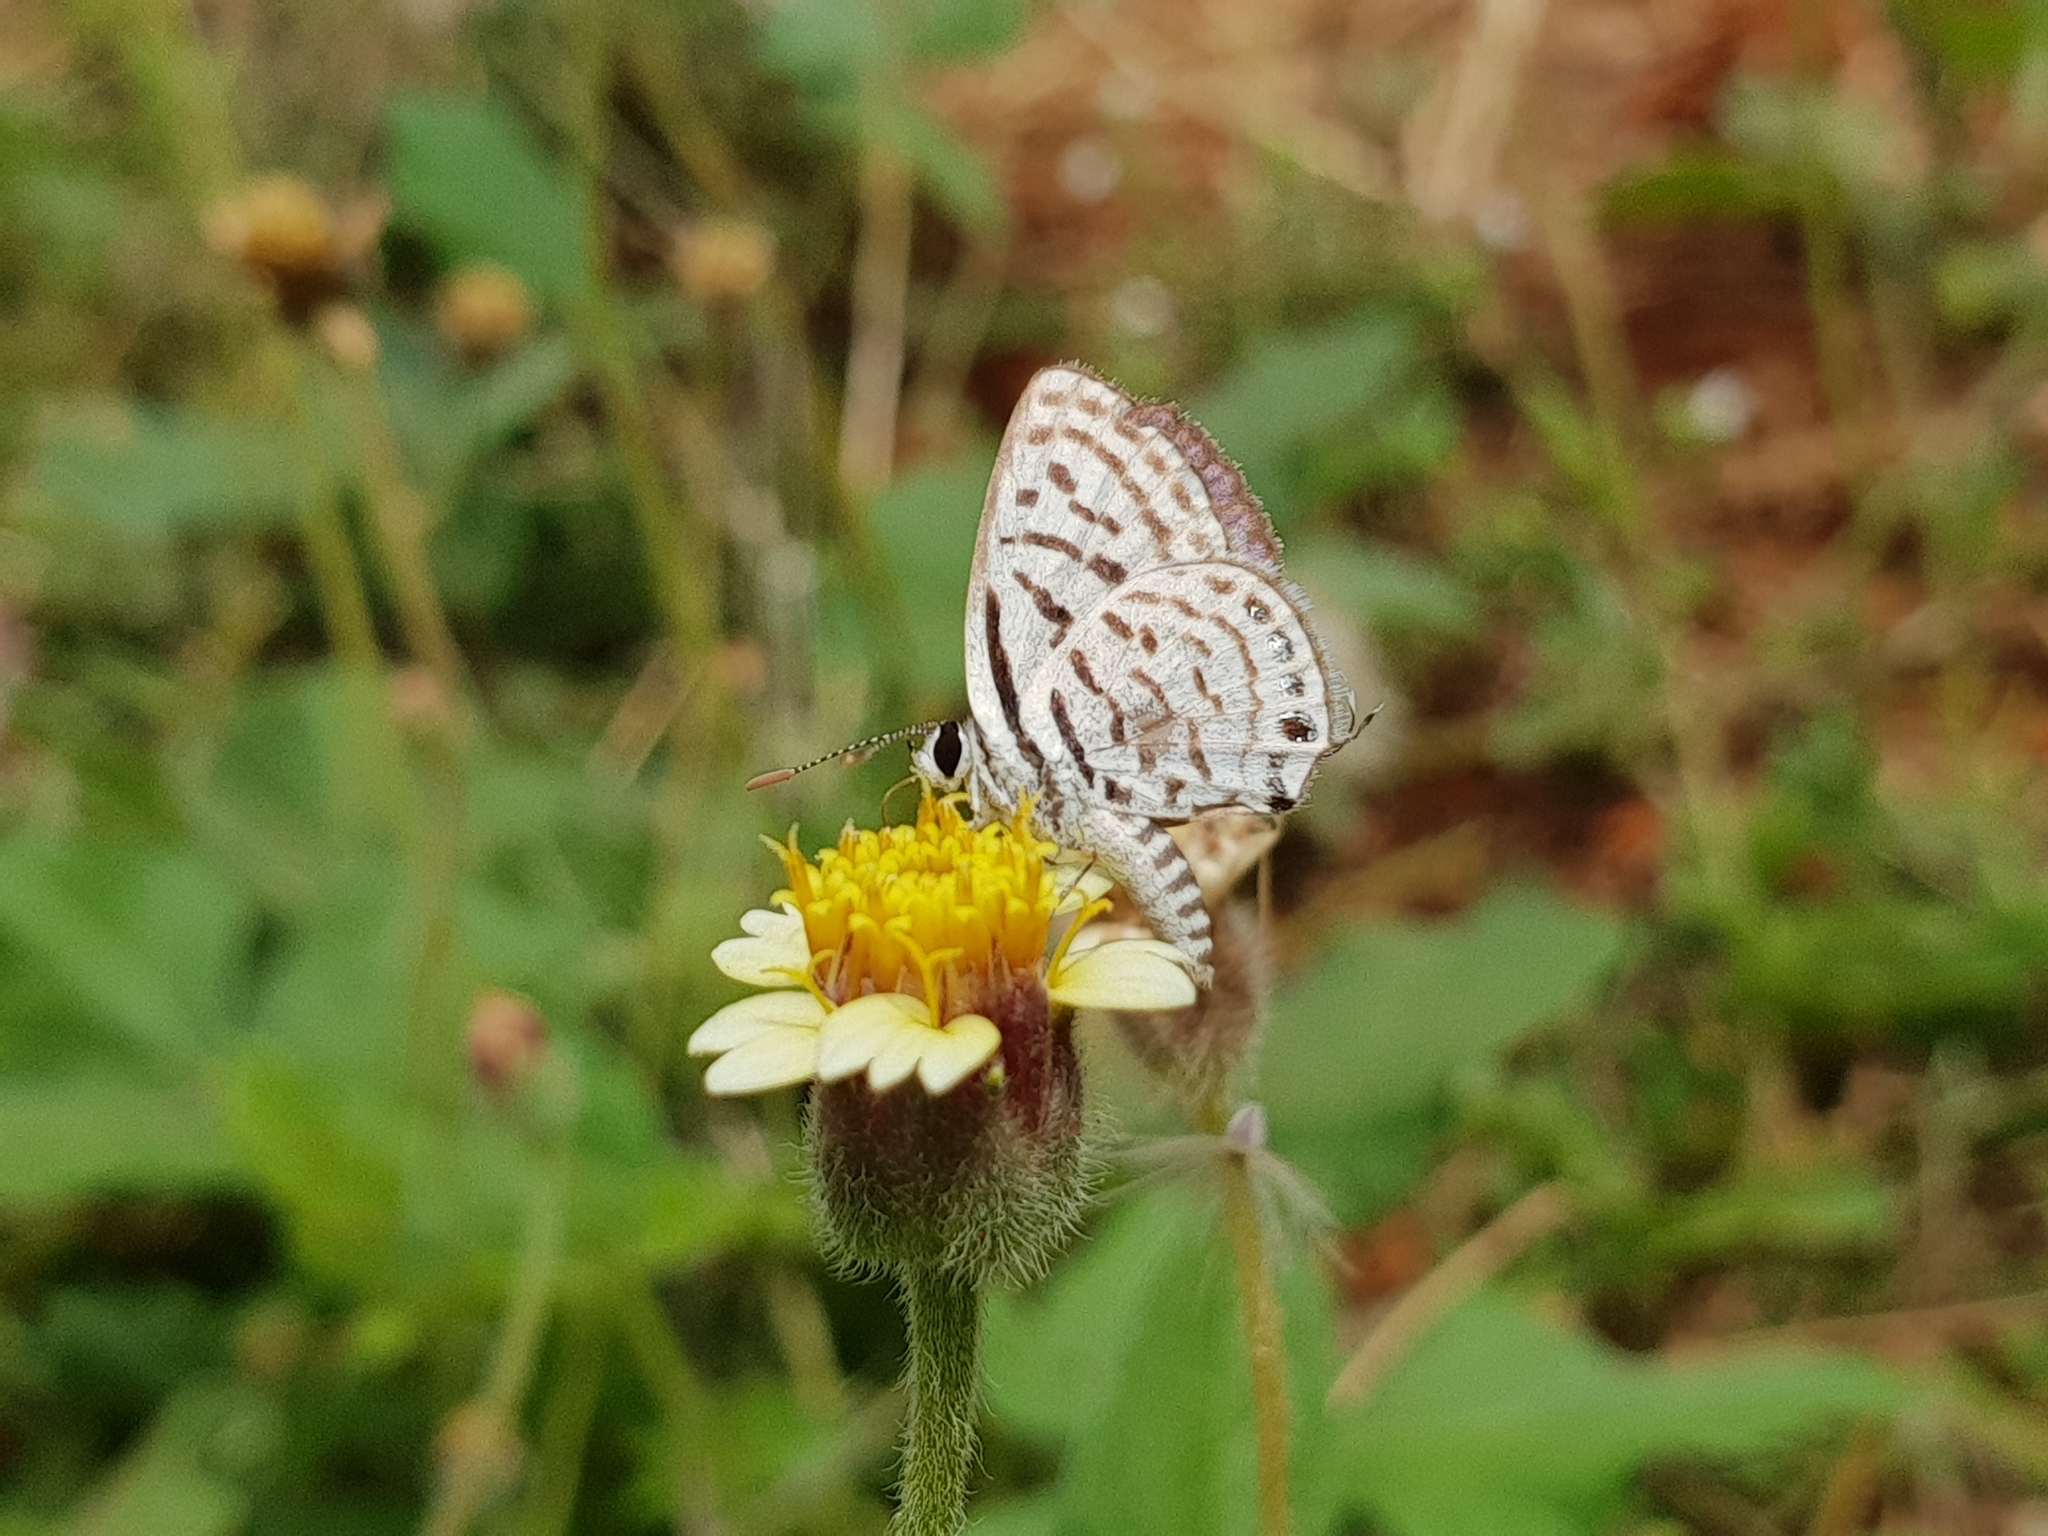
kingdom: Animalia
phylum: Arthropoda
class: Insecta
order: Lepidoptera
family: Lycaenidae
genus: Tarucus
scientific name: Tarucus nara
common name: Striped pierrot
